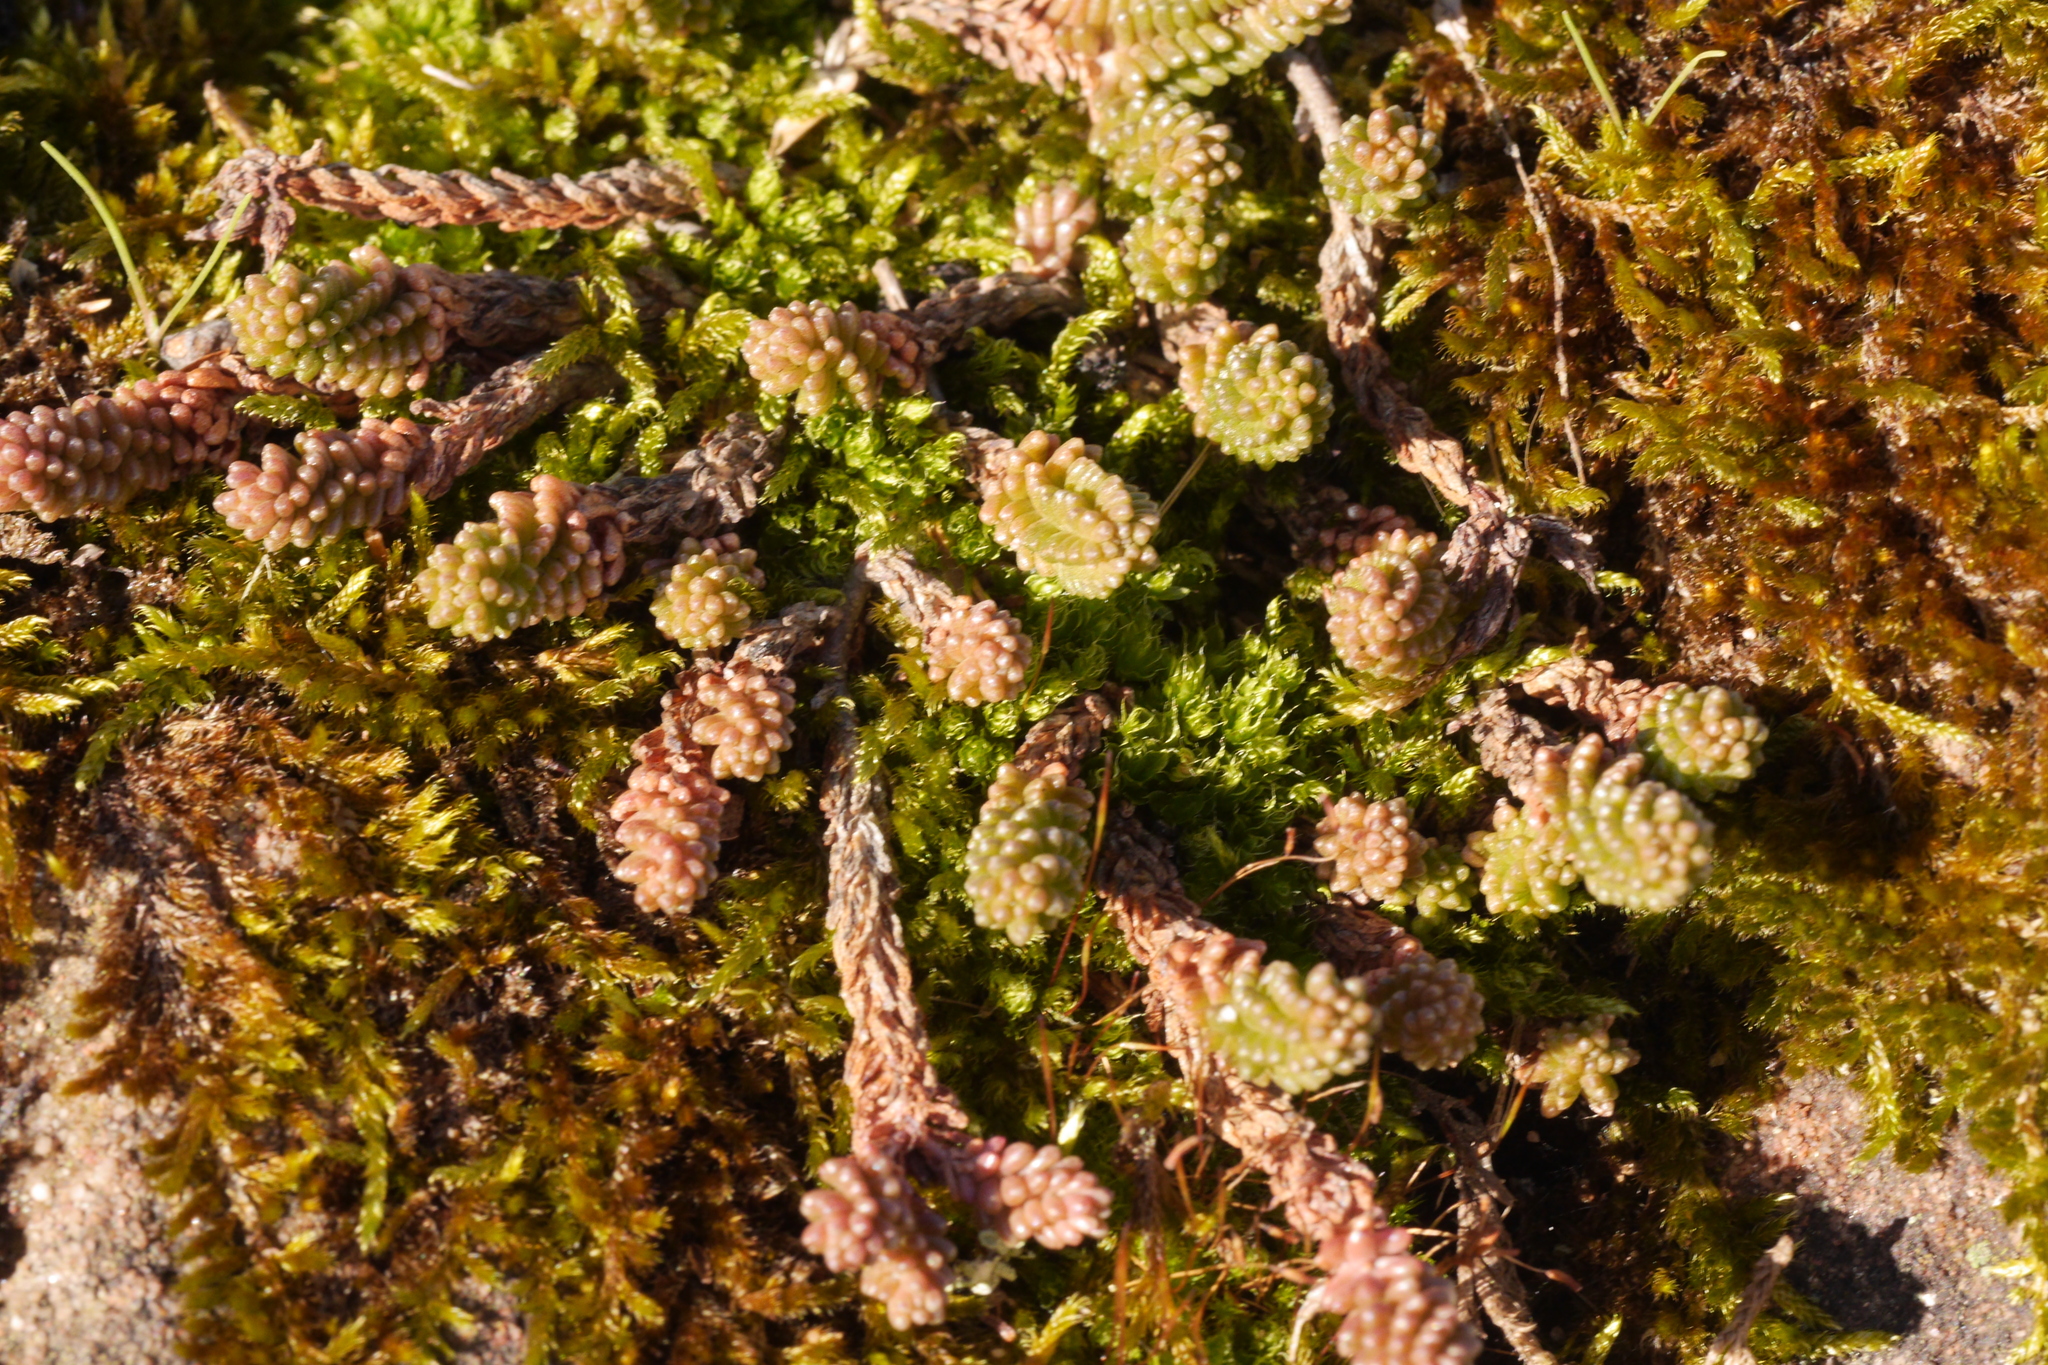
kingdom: Plantae
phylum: Tracheophyta
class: Magnoliopsida
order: Saxifragales
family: Crassulaceae
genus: Sedum
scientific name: Sedum sexangulare
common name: Tasteless stonecrop
